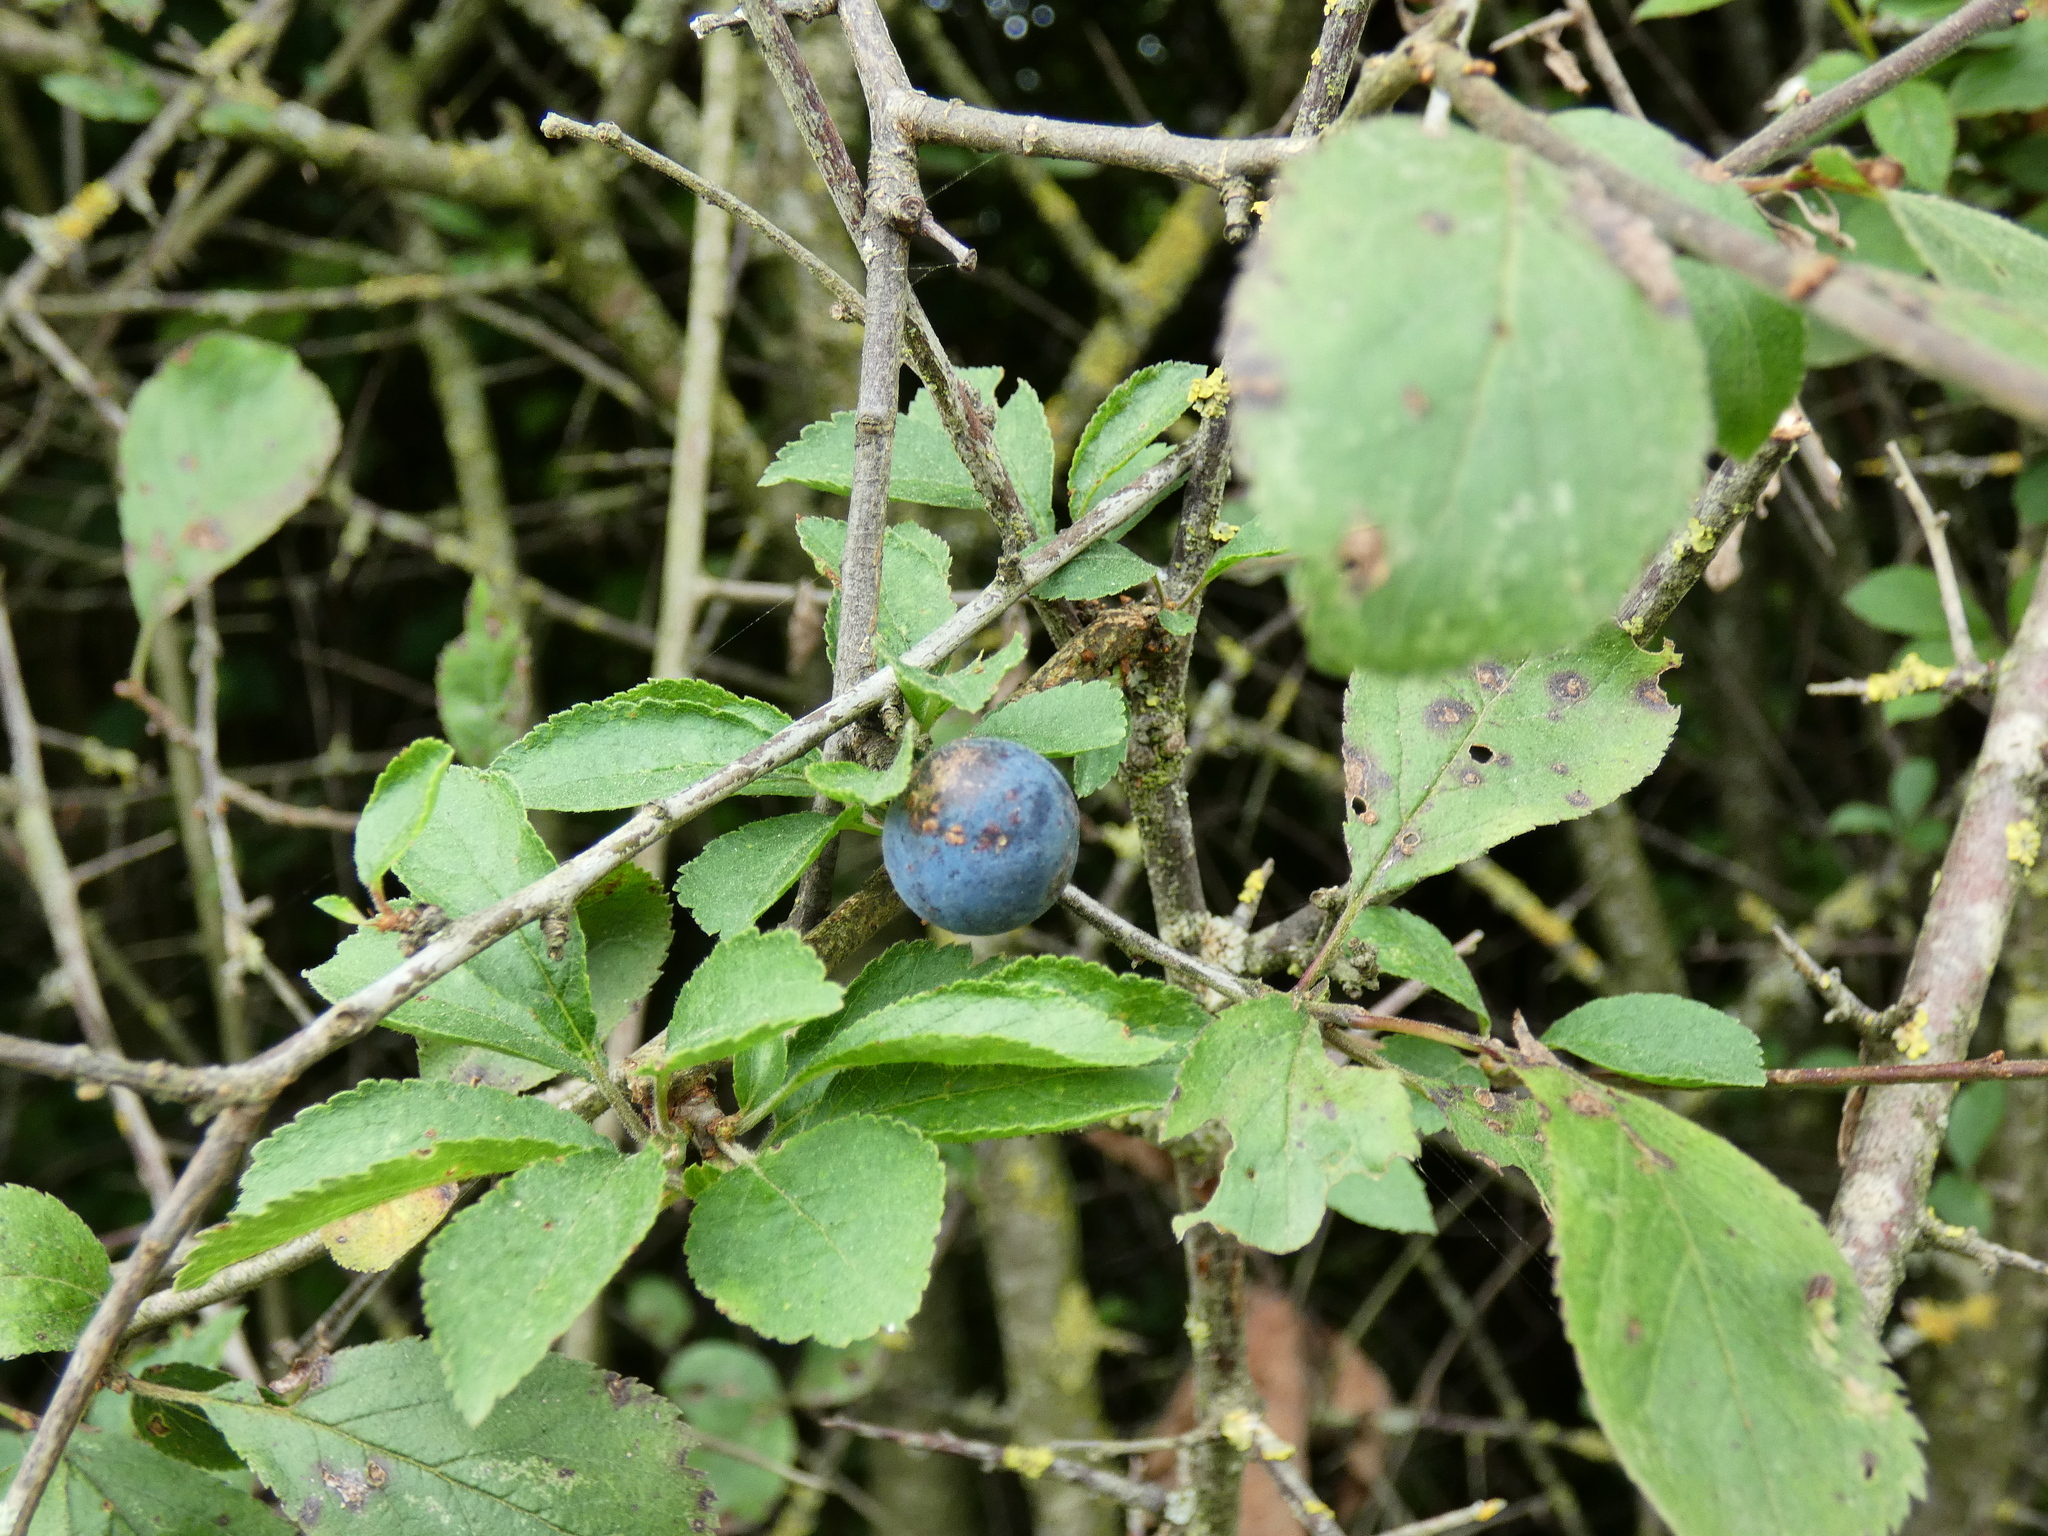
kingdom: Plantae
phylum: Tracheophyta
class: Magnoliopsida
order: Rosales
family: Rosaceae
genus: Prunus
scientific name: Prunus spinosa
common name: Blackthorn
